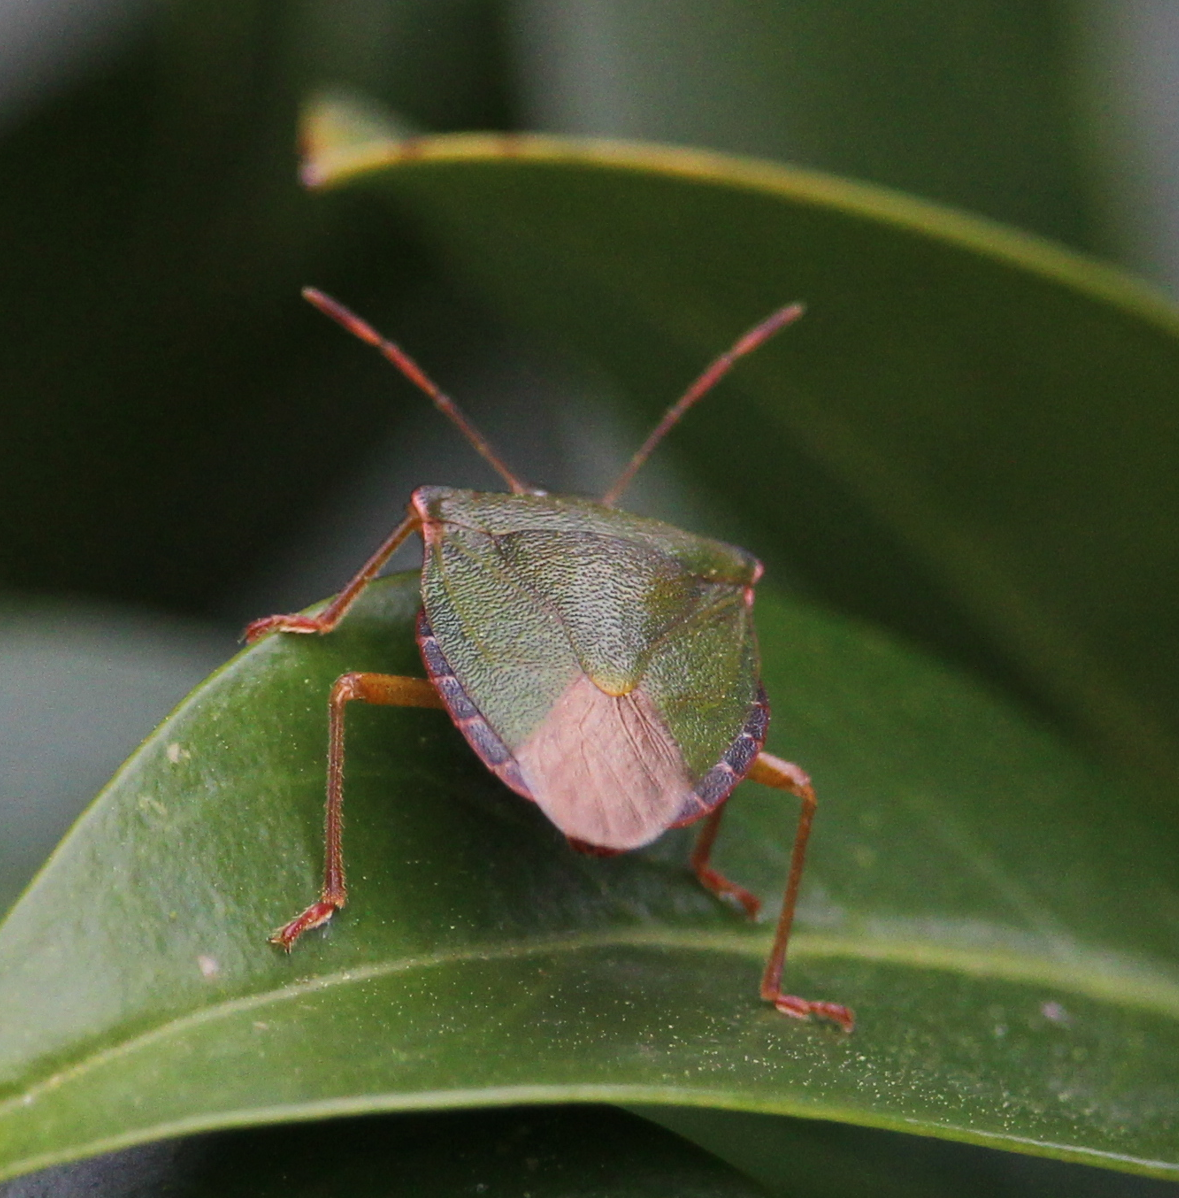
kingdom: Animalia
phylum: Arthropoda
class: Insecta
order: Hemiptera
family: Pentatomidae
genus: Palomena
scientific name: Palomena prasina
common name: Green shieldbug
